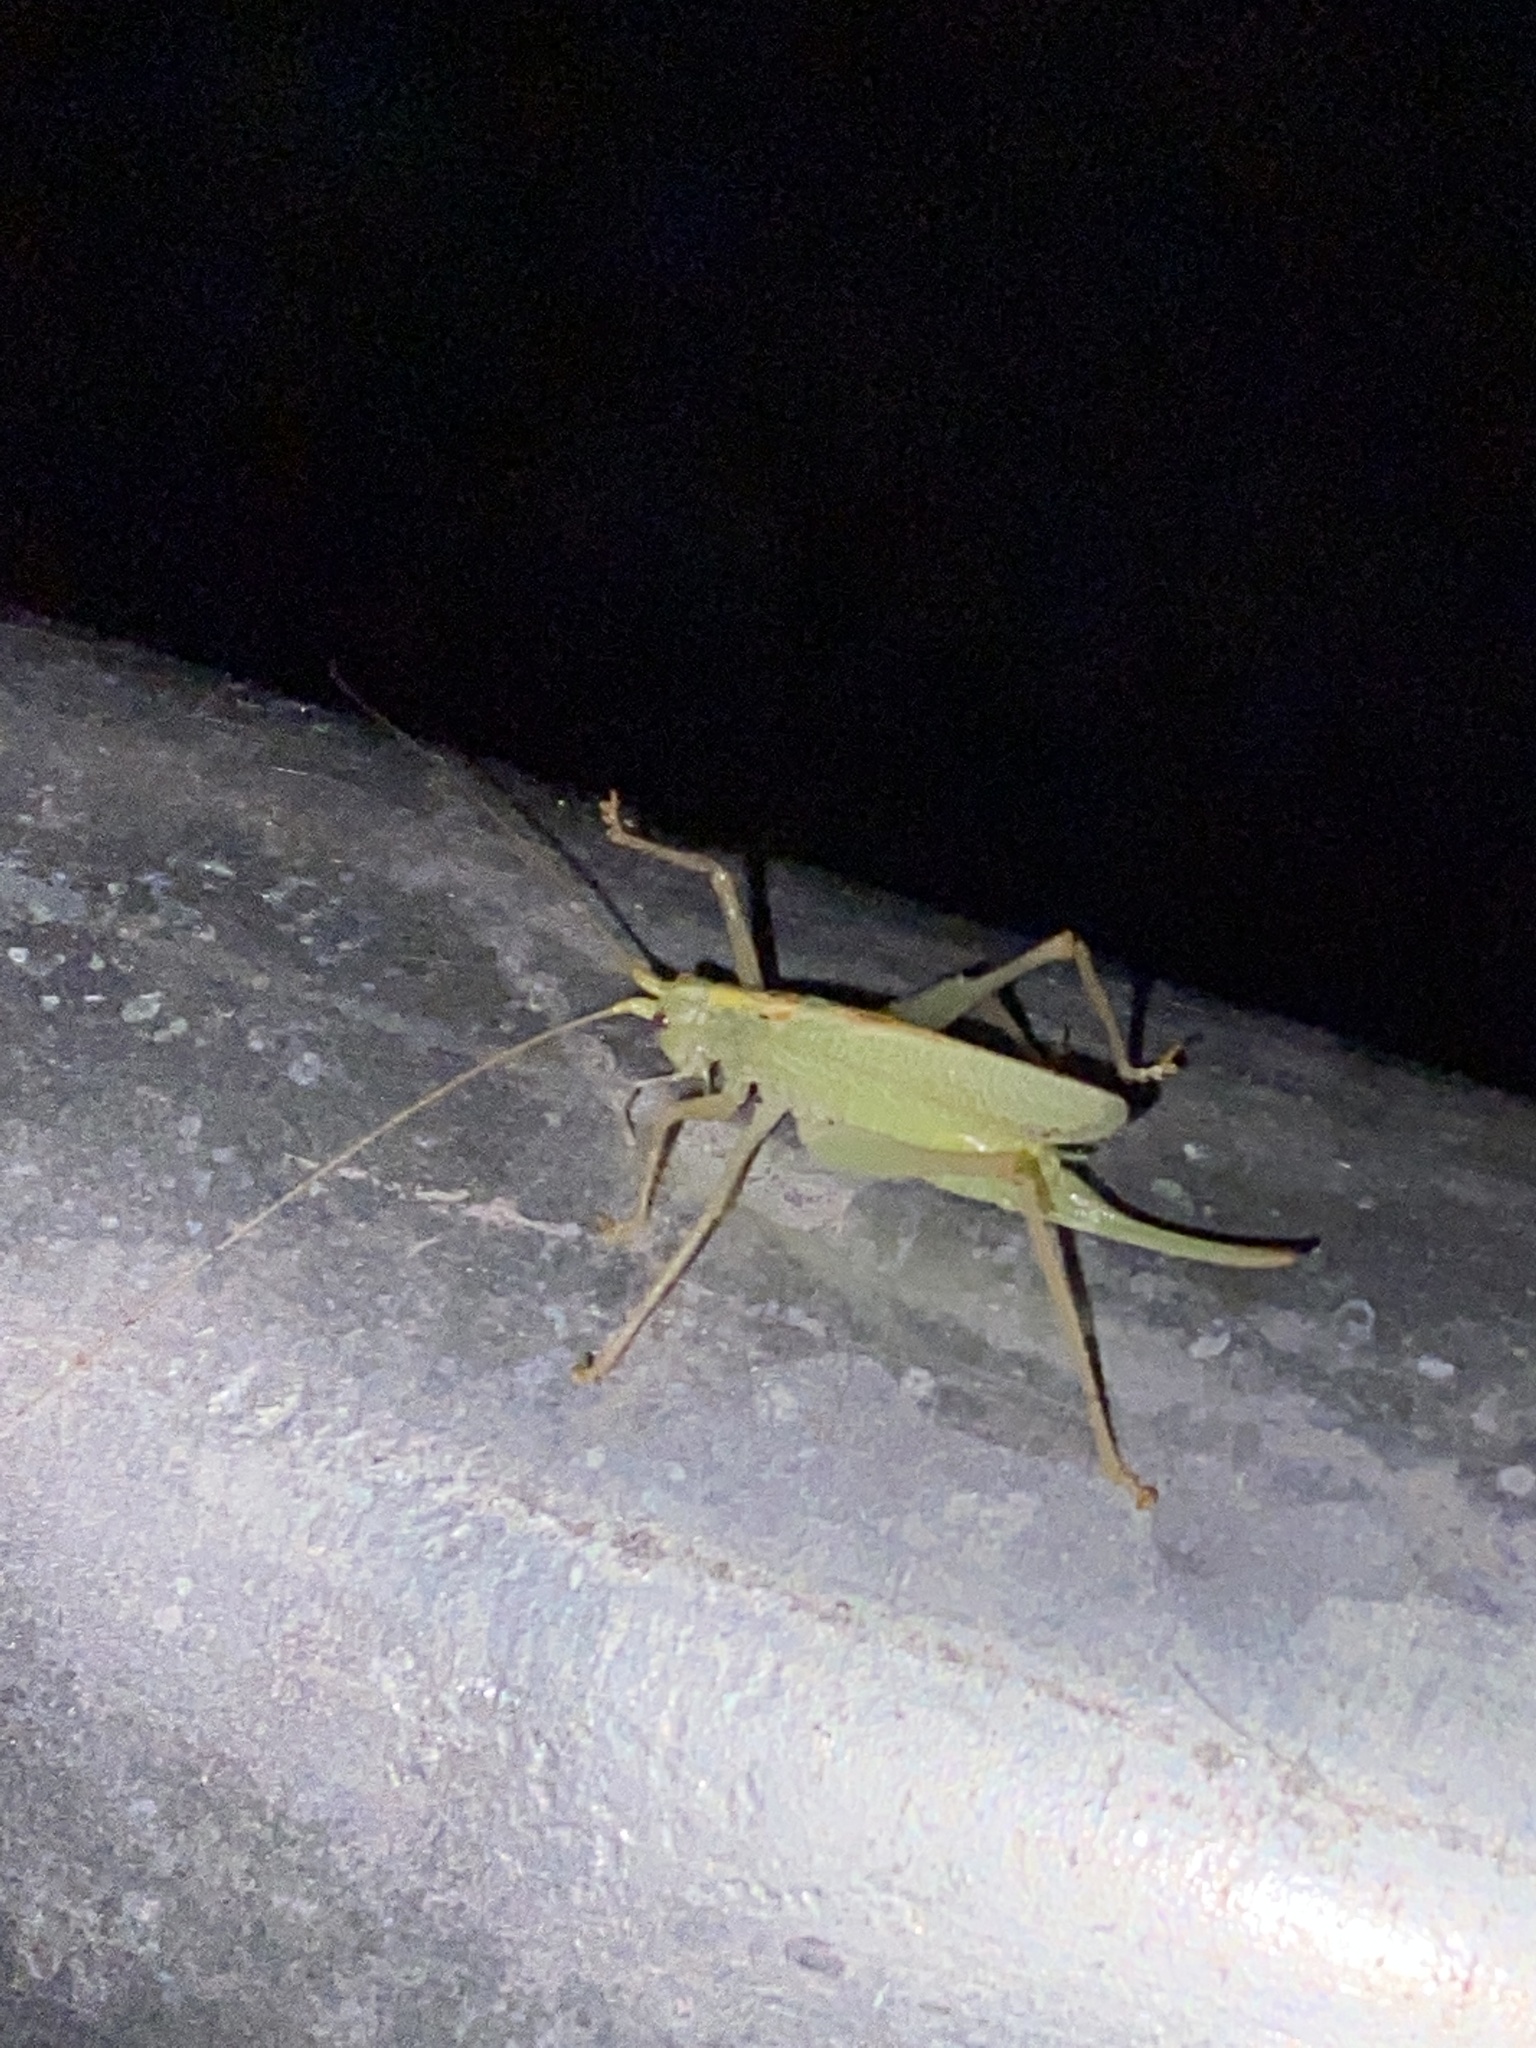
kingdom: Animalia
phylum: Arthropoda
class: Insecta
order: Orthoptera
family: Tettigoniidae
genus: Meconema
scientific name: Meconema thalassinum
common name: Oak bush-cricket
